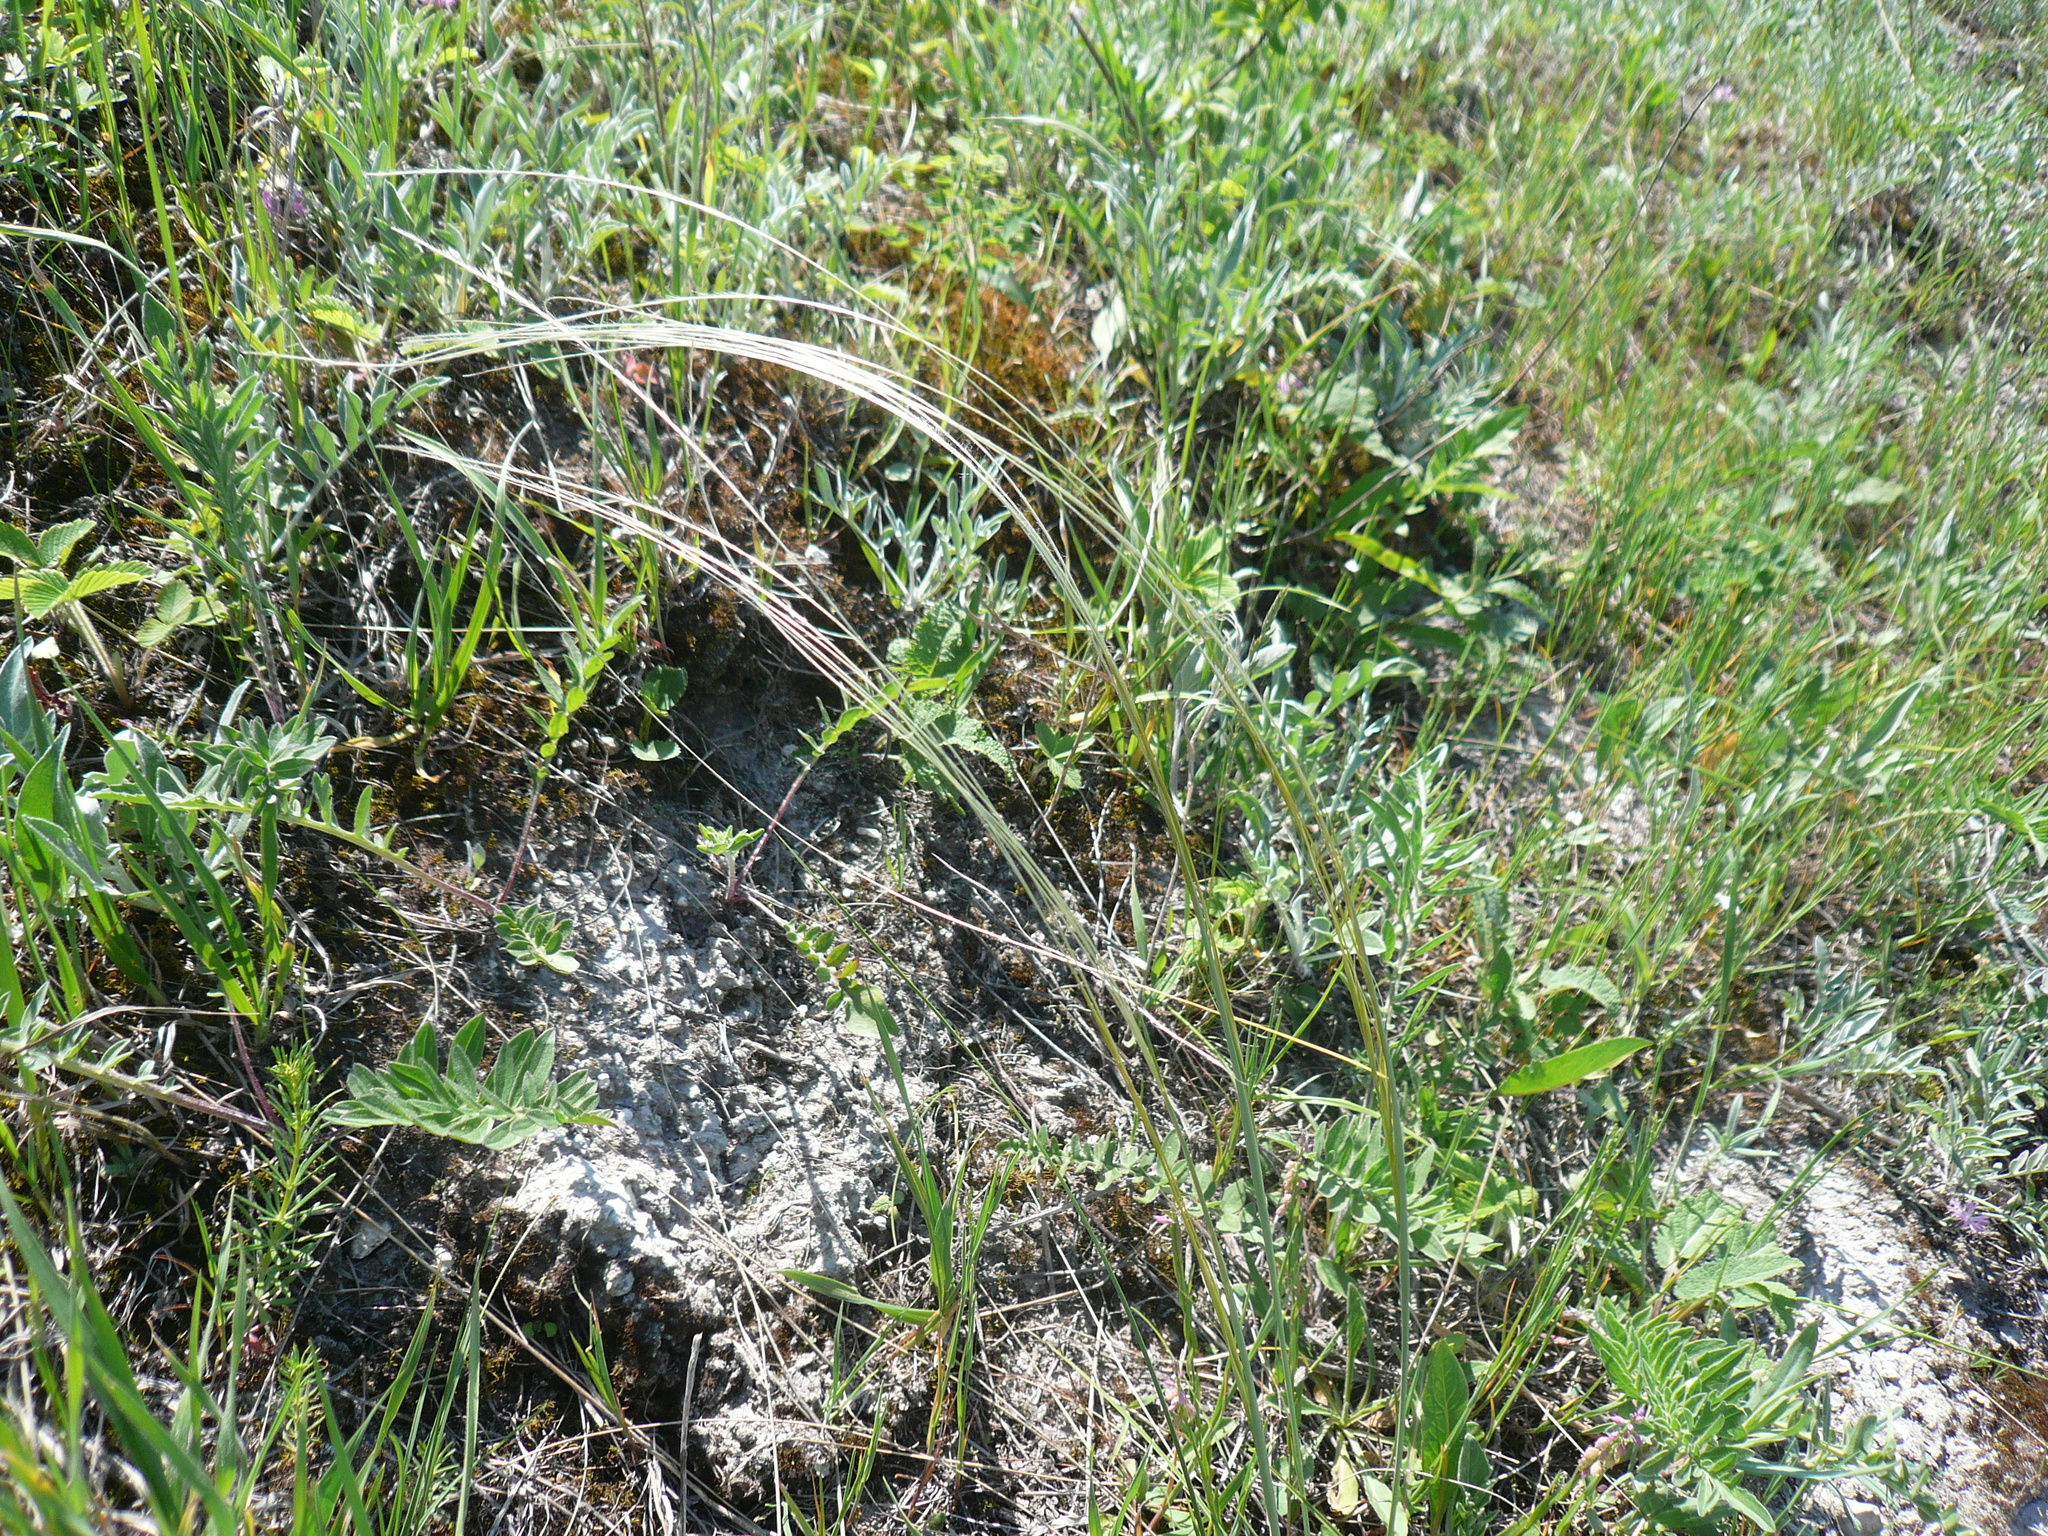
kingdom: Plantae
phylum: Tracheophyta
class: Liliopsida
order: Poales
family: Poaceae
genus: Stipa
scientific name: Stipa pennata
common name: European feather grass
